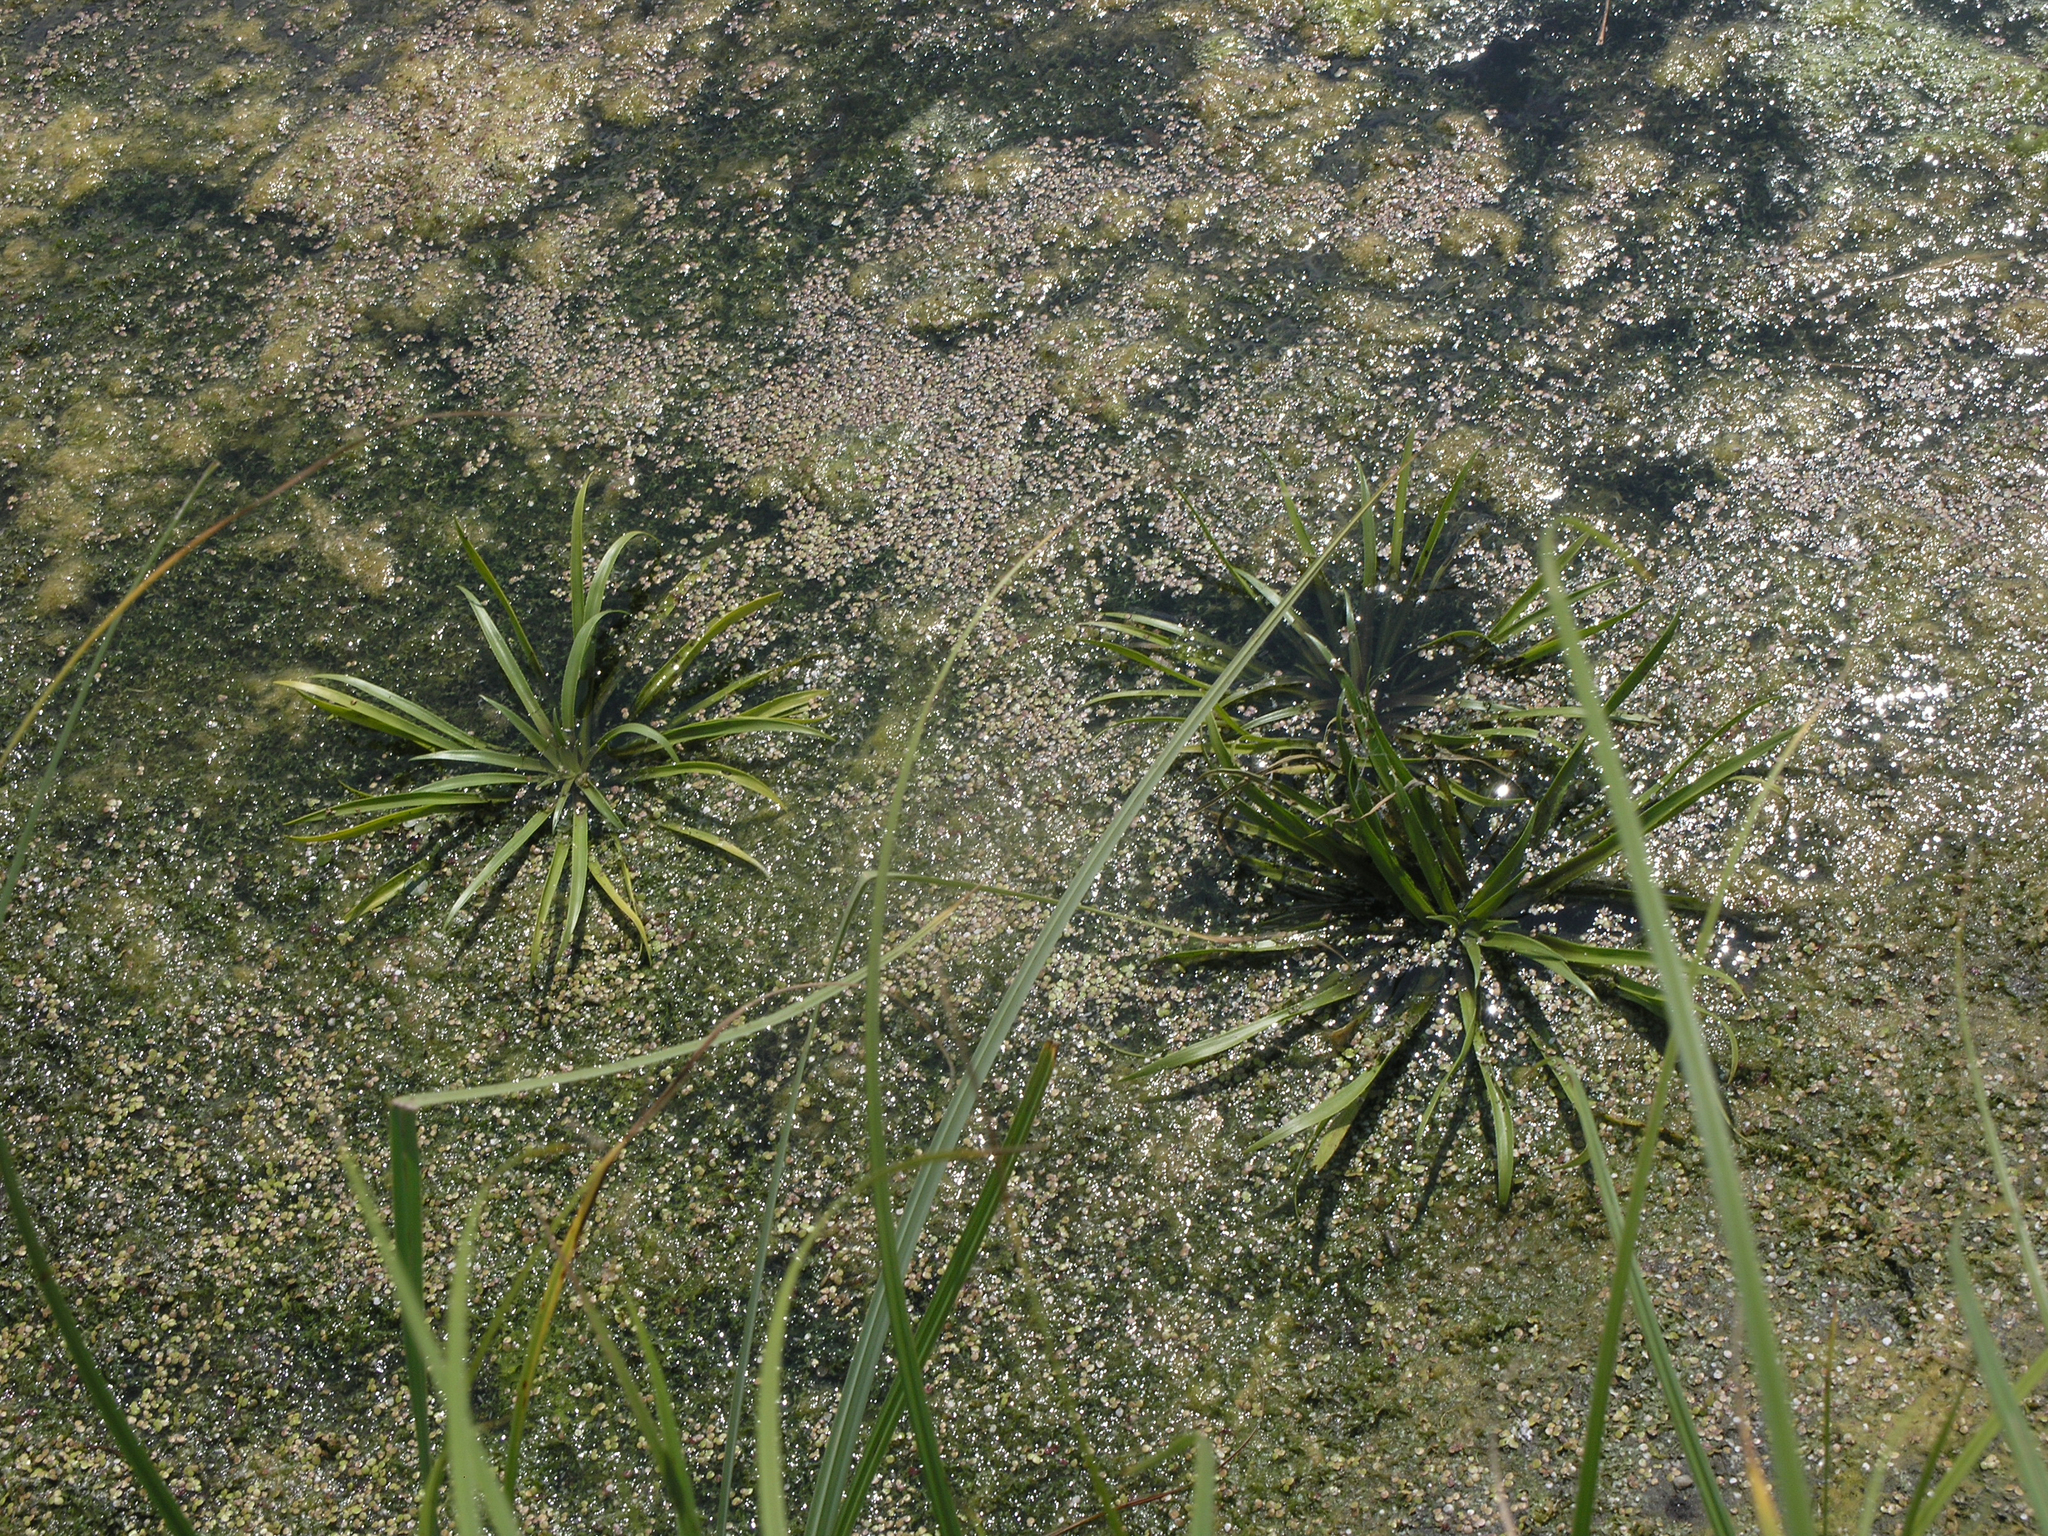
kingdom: Plantae
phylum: Tracheophyta
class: Liliopsida
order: Alismatales
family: Hydrocharitaceae
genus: Stratiotes
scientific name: Stratiotes aloides
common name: Water-soldier
